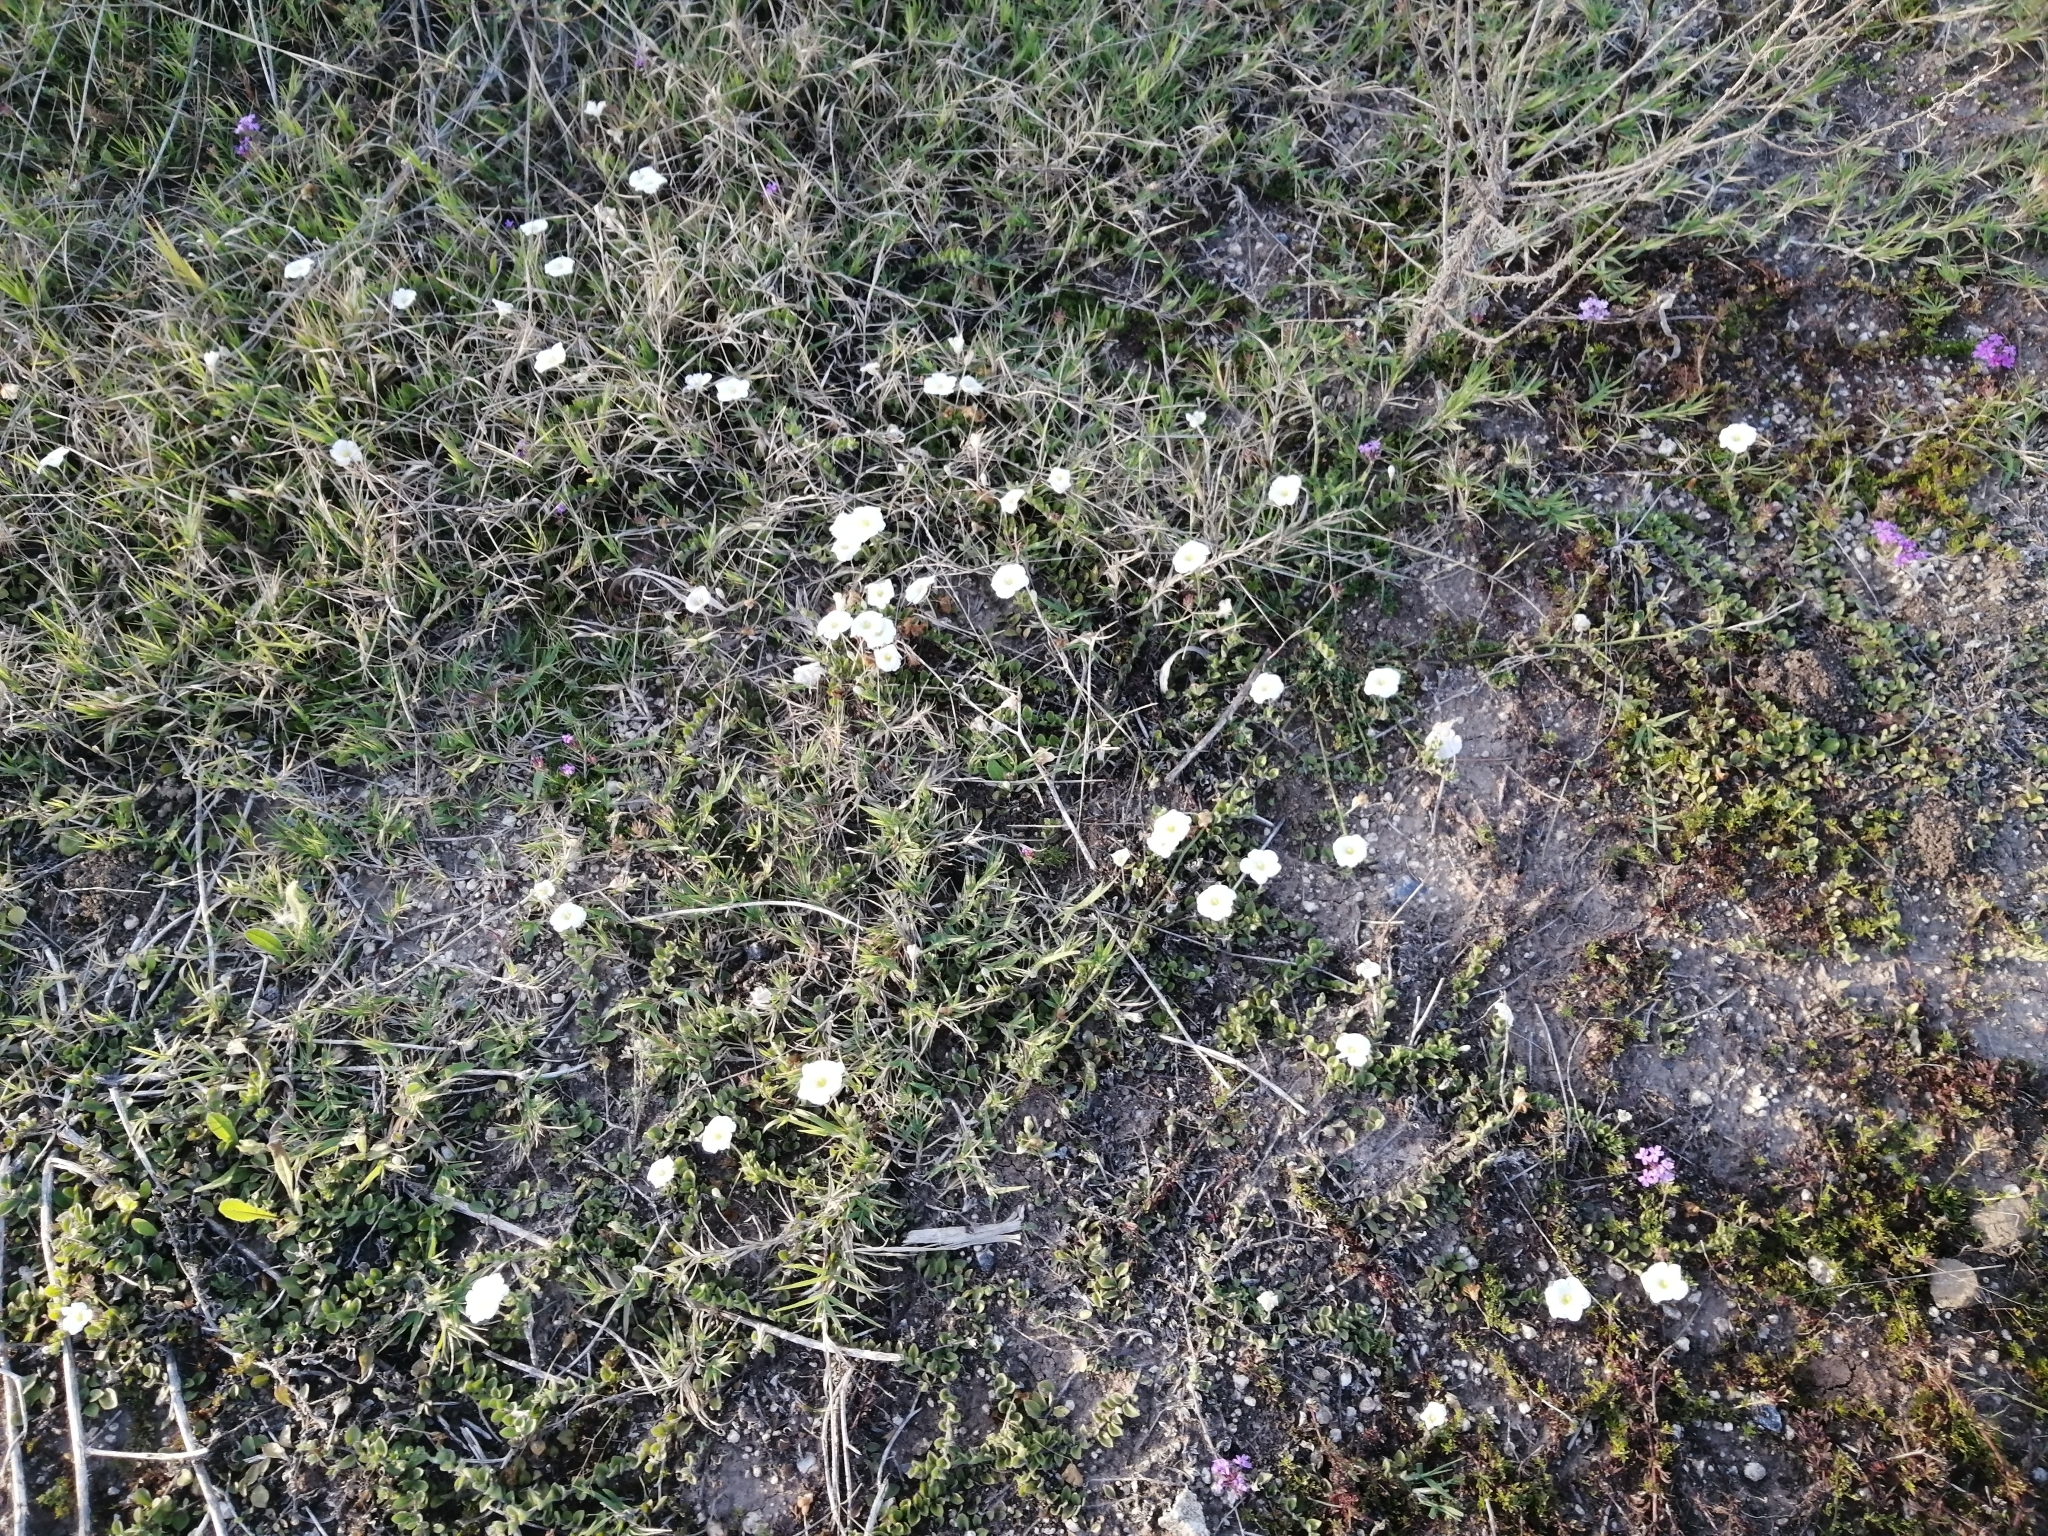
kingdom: Plantae
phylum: Tracheophyta
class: Magnoliopsida
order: Solanales
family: Solanaceae
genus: Nierembergia
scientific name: Nierembergia calycina
